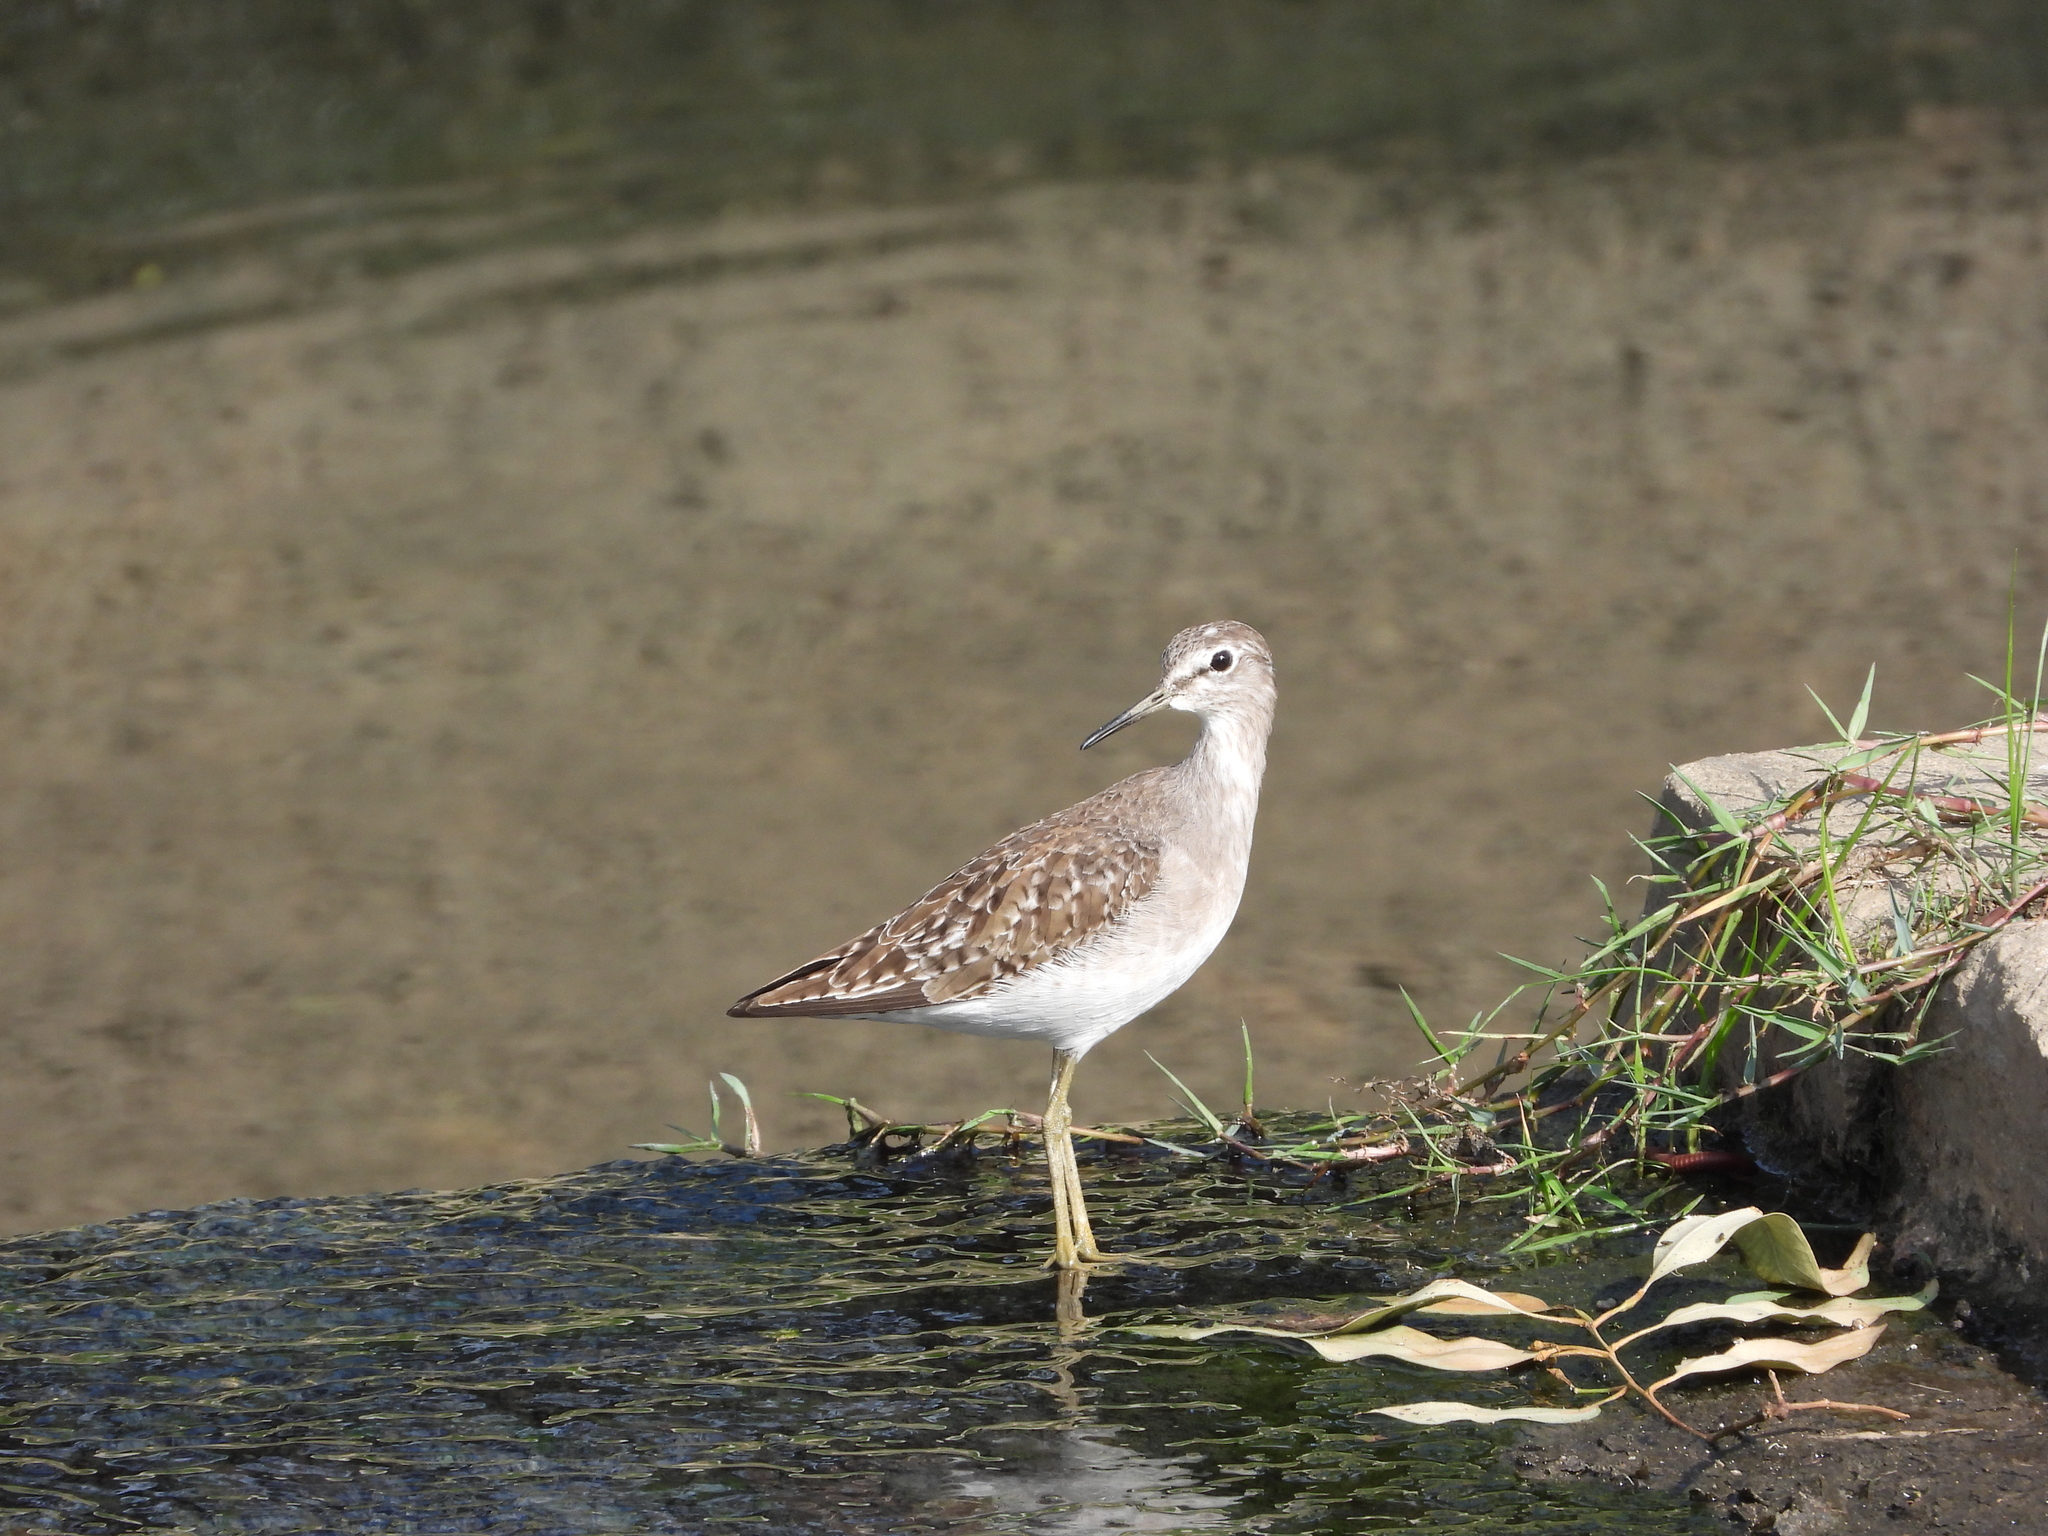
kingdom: Animalia
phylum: Chordata
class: Aves
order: Charadriiformes
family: Scolopacidae
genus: Tringa
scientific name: Tringa glareola
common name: Wood sandpiper
